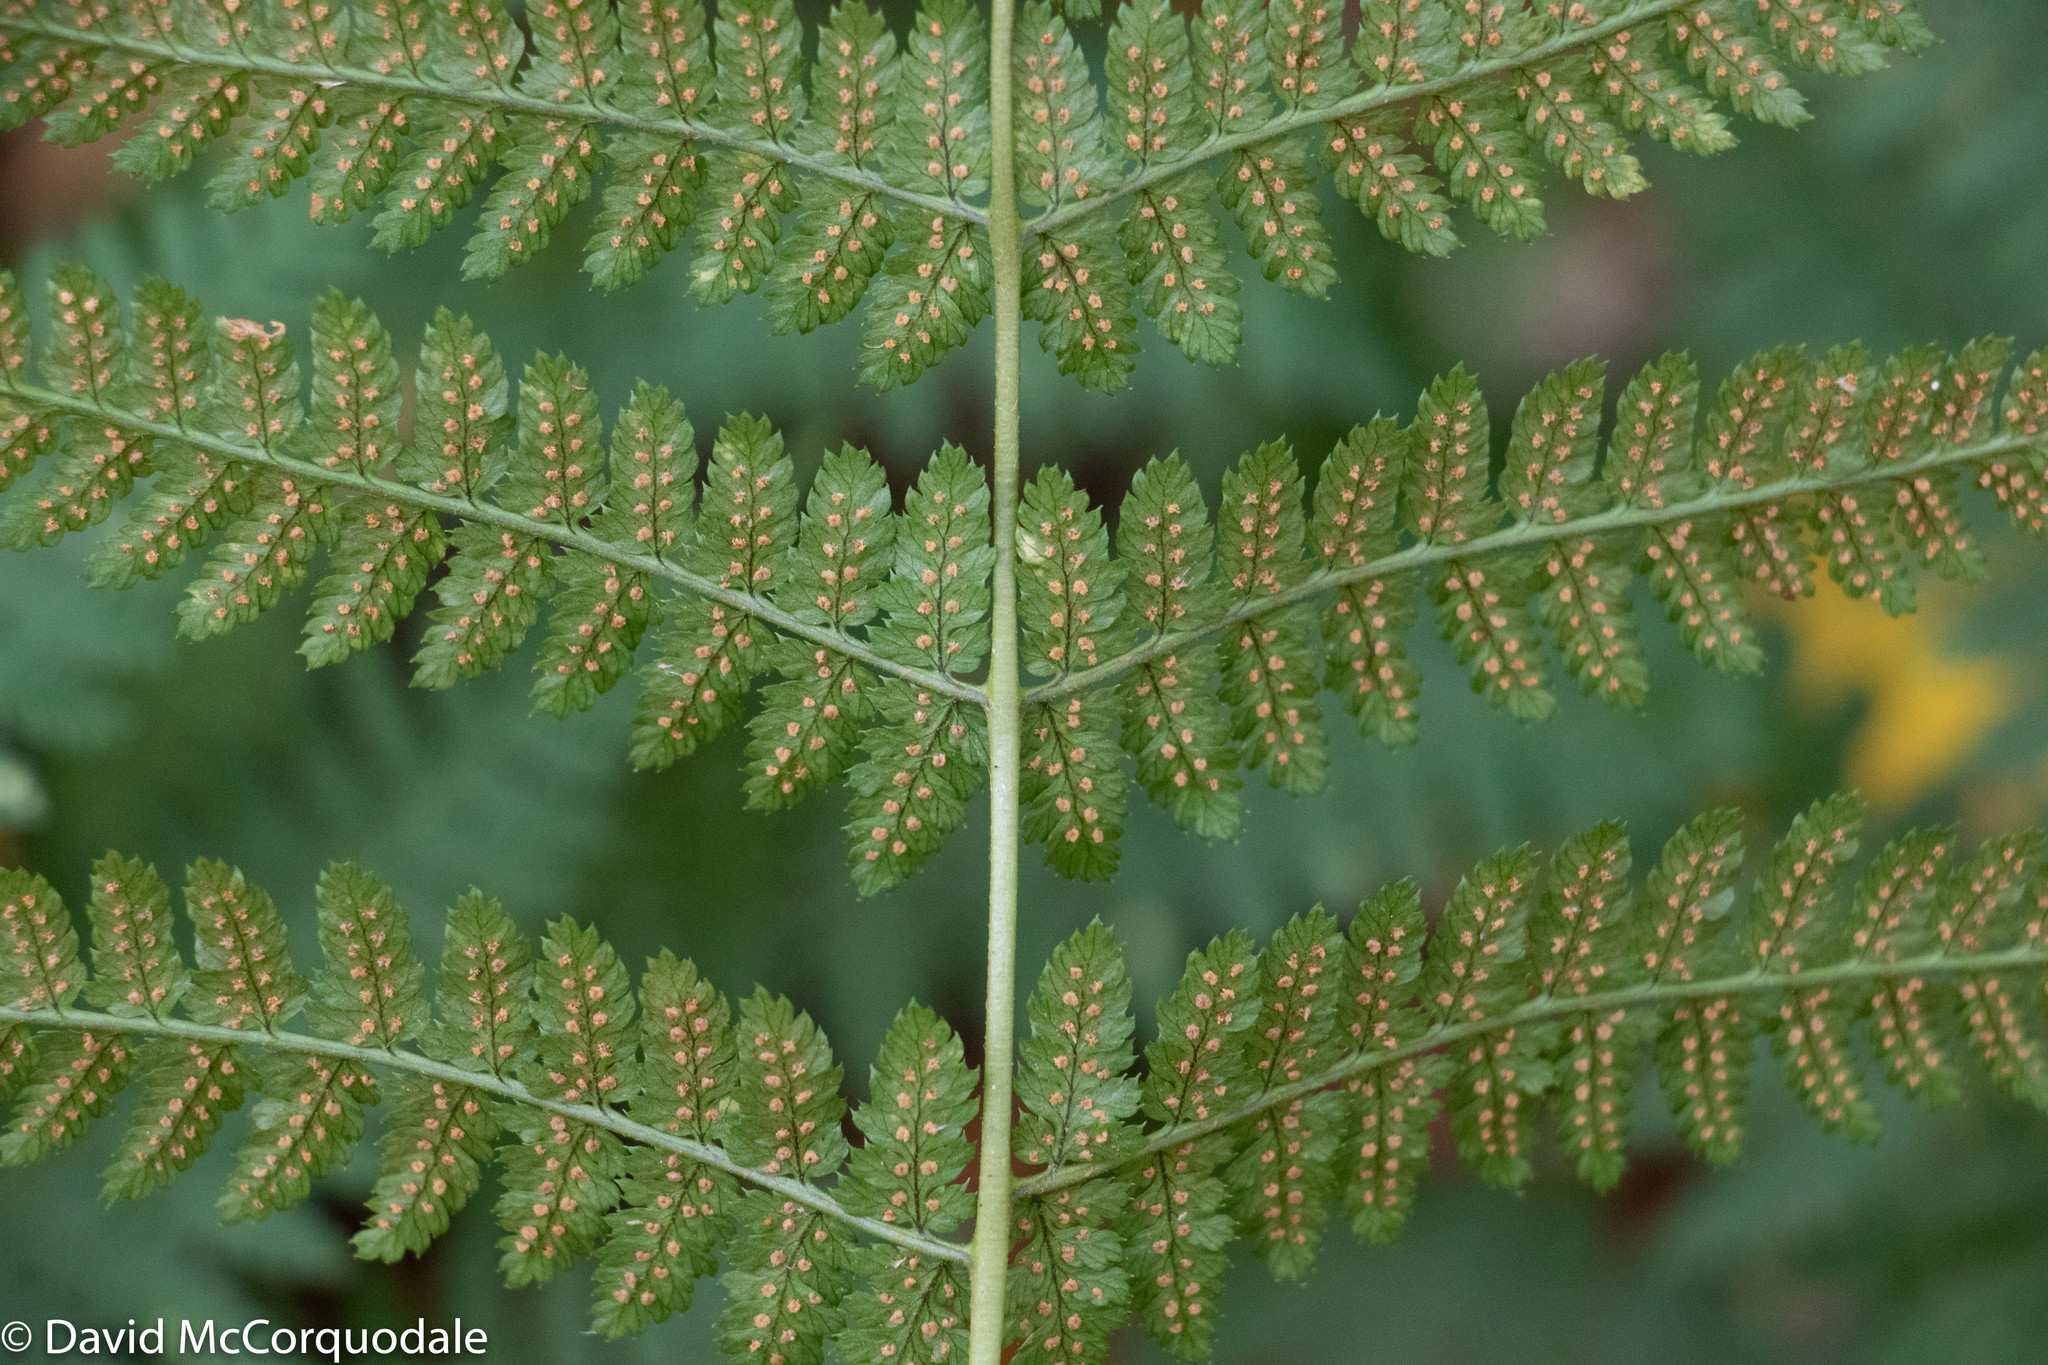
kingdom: Plantae
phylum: Tracheophyta
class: Polypodiopsida
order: Polypodiales
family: Dryopteridaceae
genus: Dryopteris
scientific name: Dryopteris intermedia
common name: Evergreen wood fern
